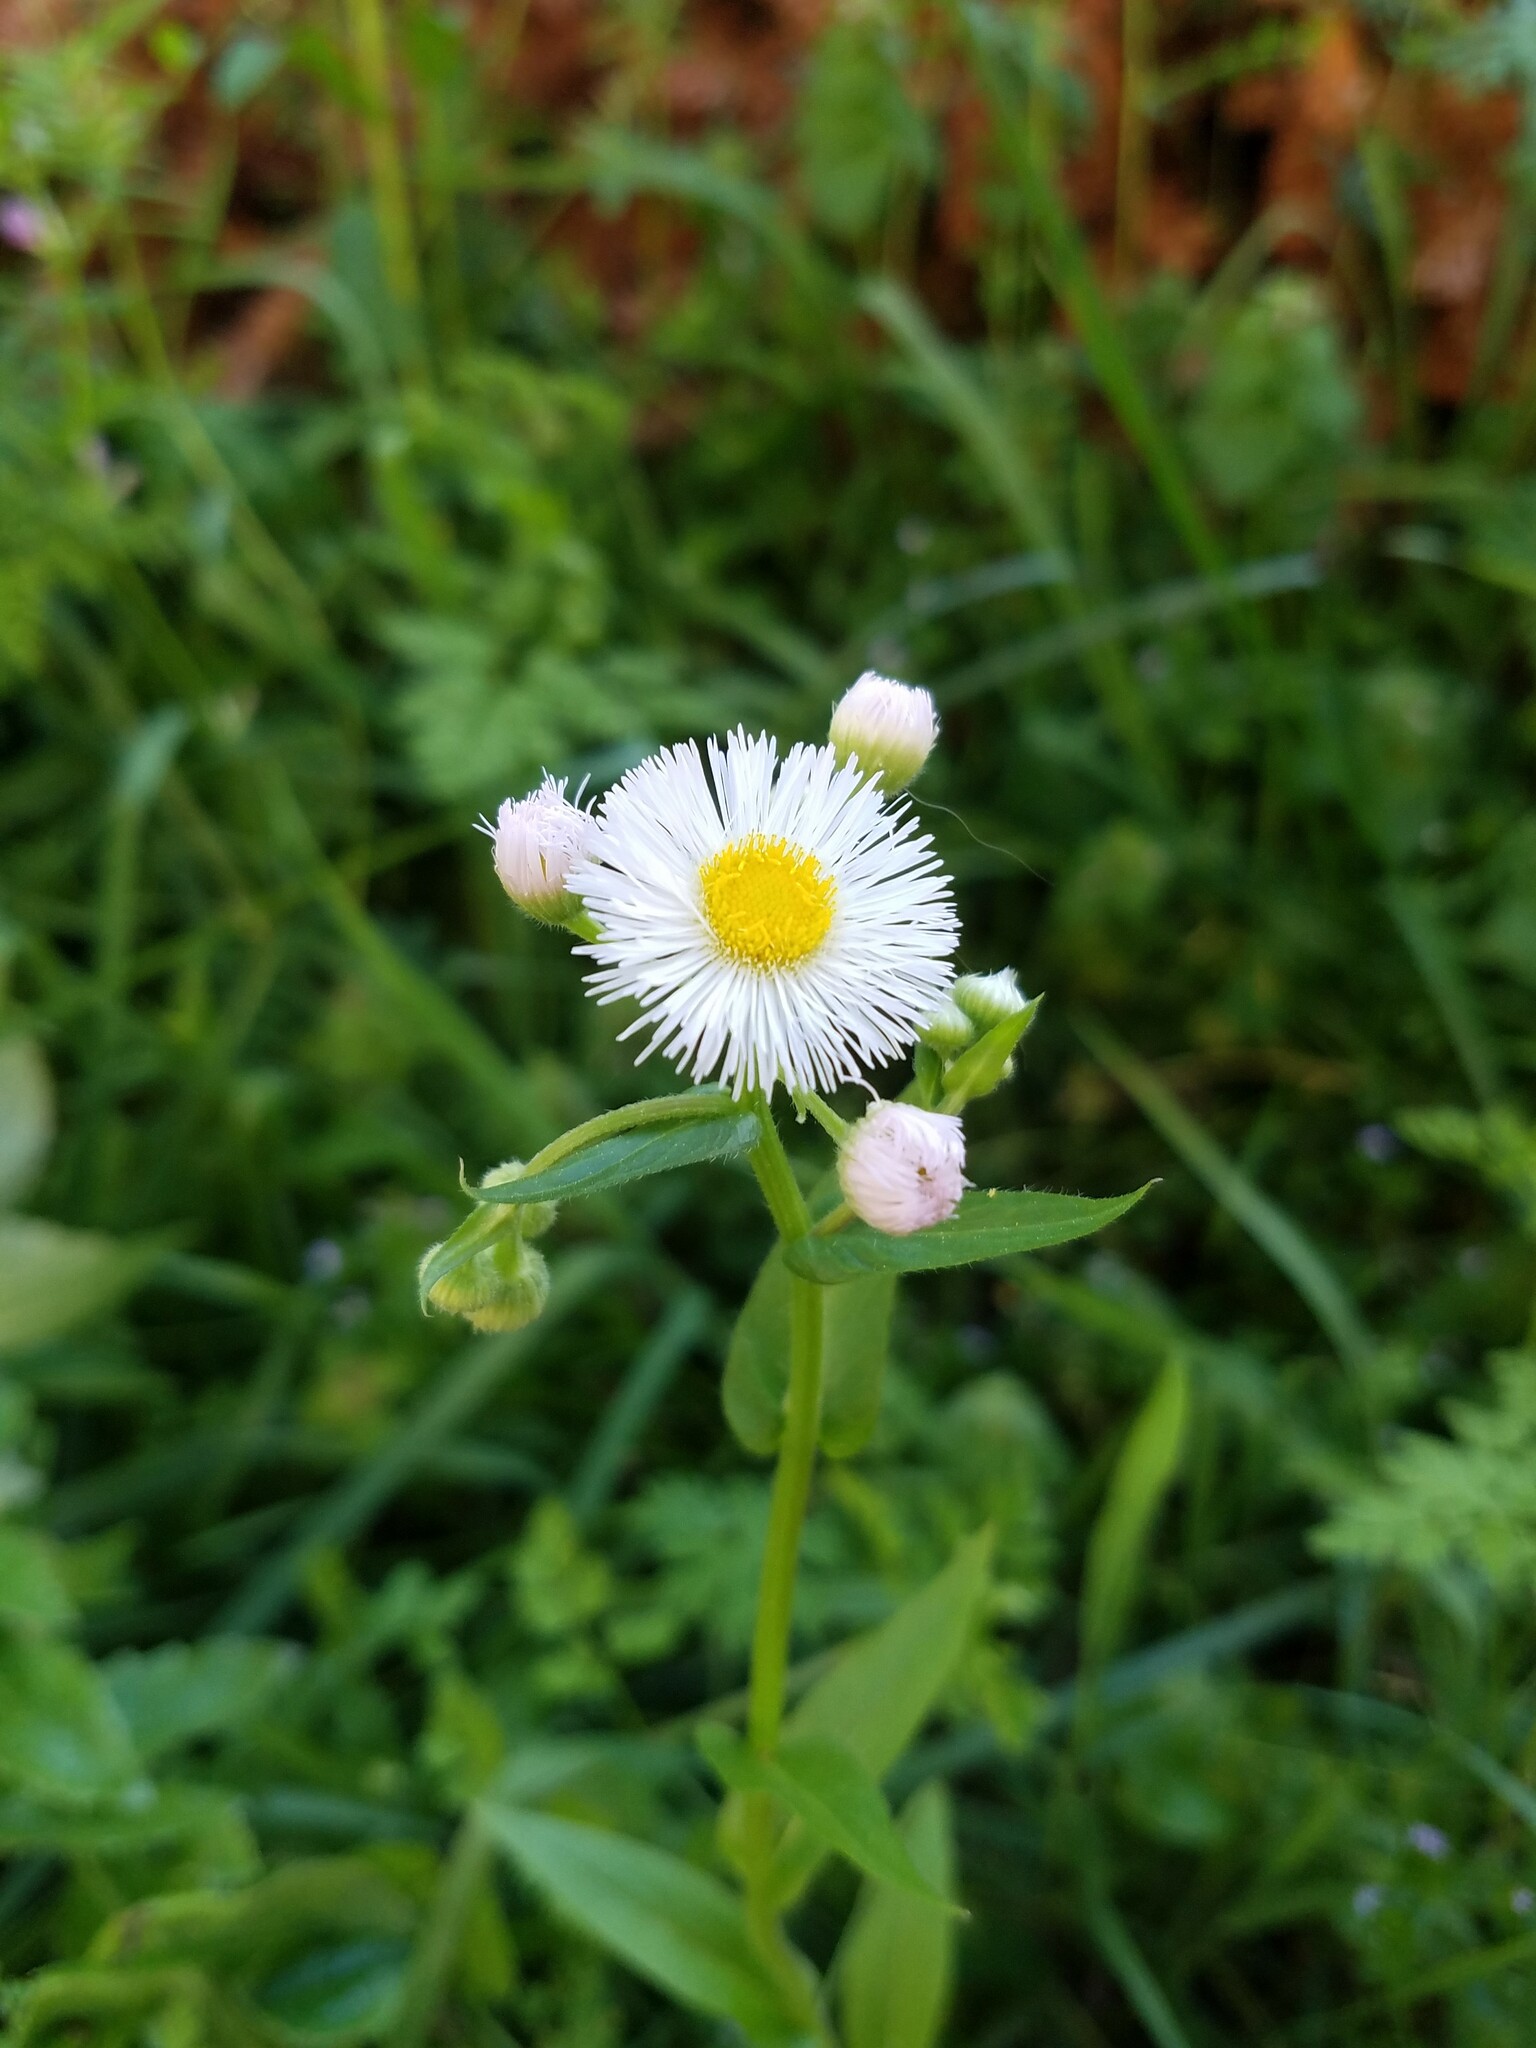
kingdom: Plantae
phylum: Tracheophyta
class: Magnoliopsida
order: Asterales
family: Asteraceae
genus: Erigeron
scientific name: Erigeron philadelphicus
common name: Robin's-plantain
